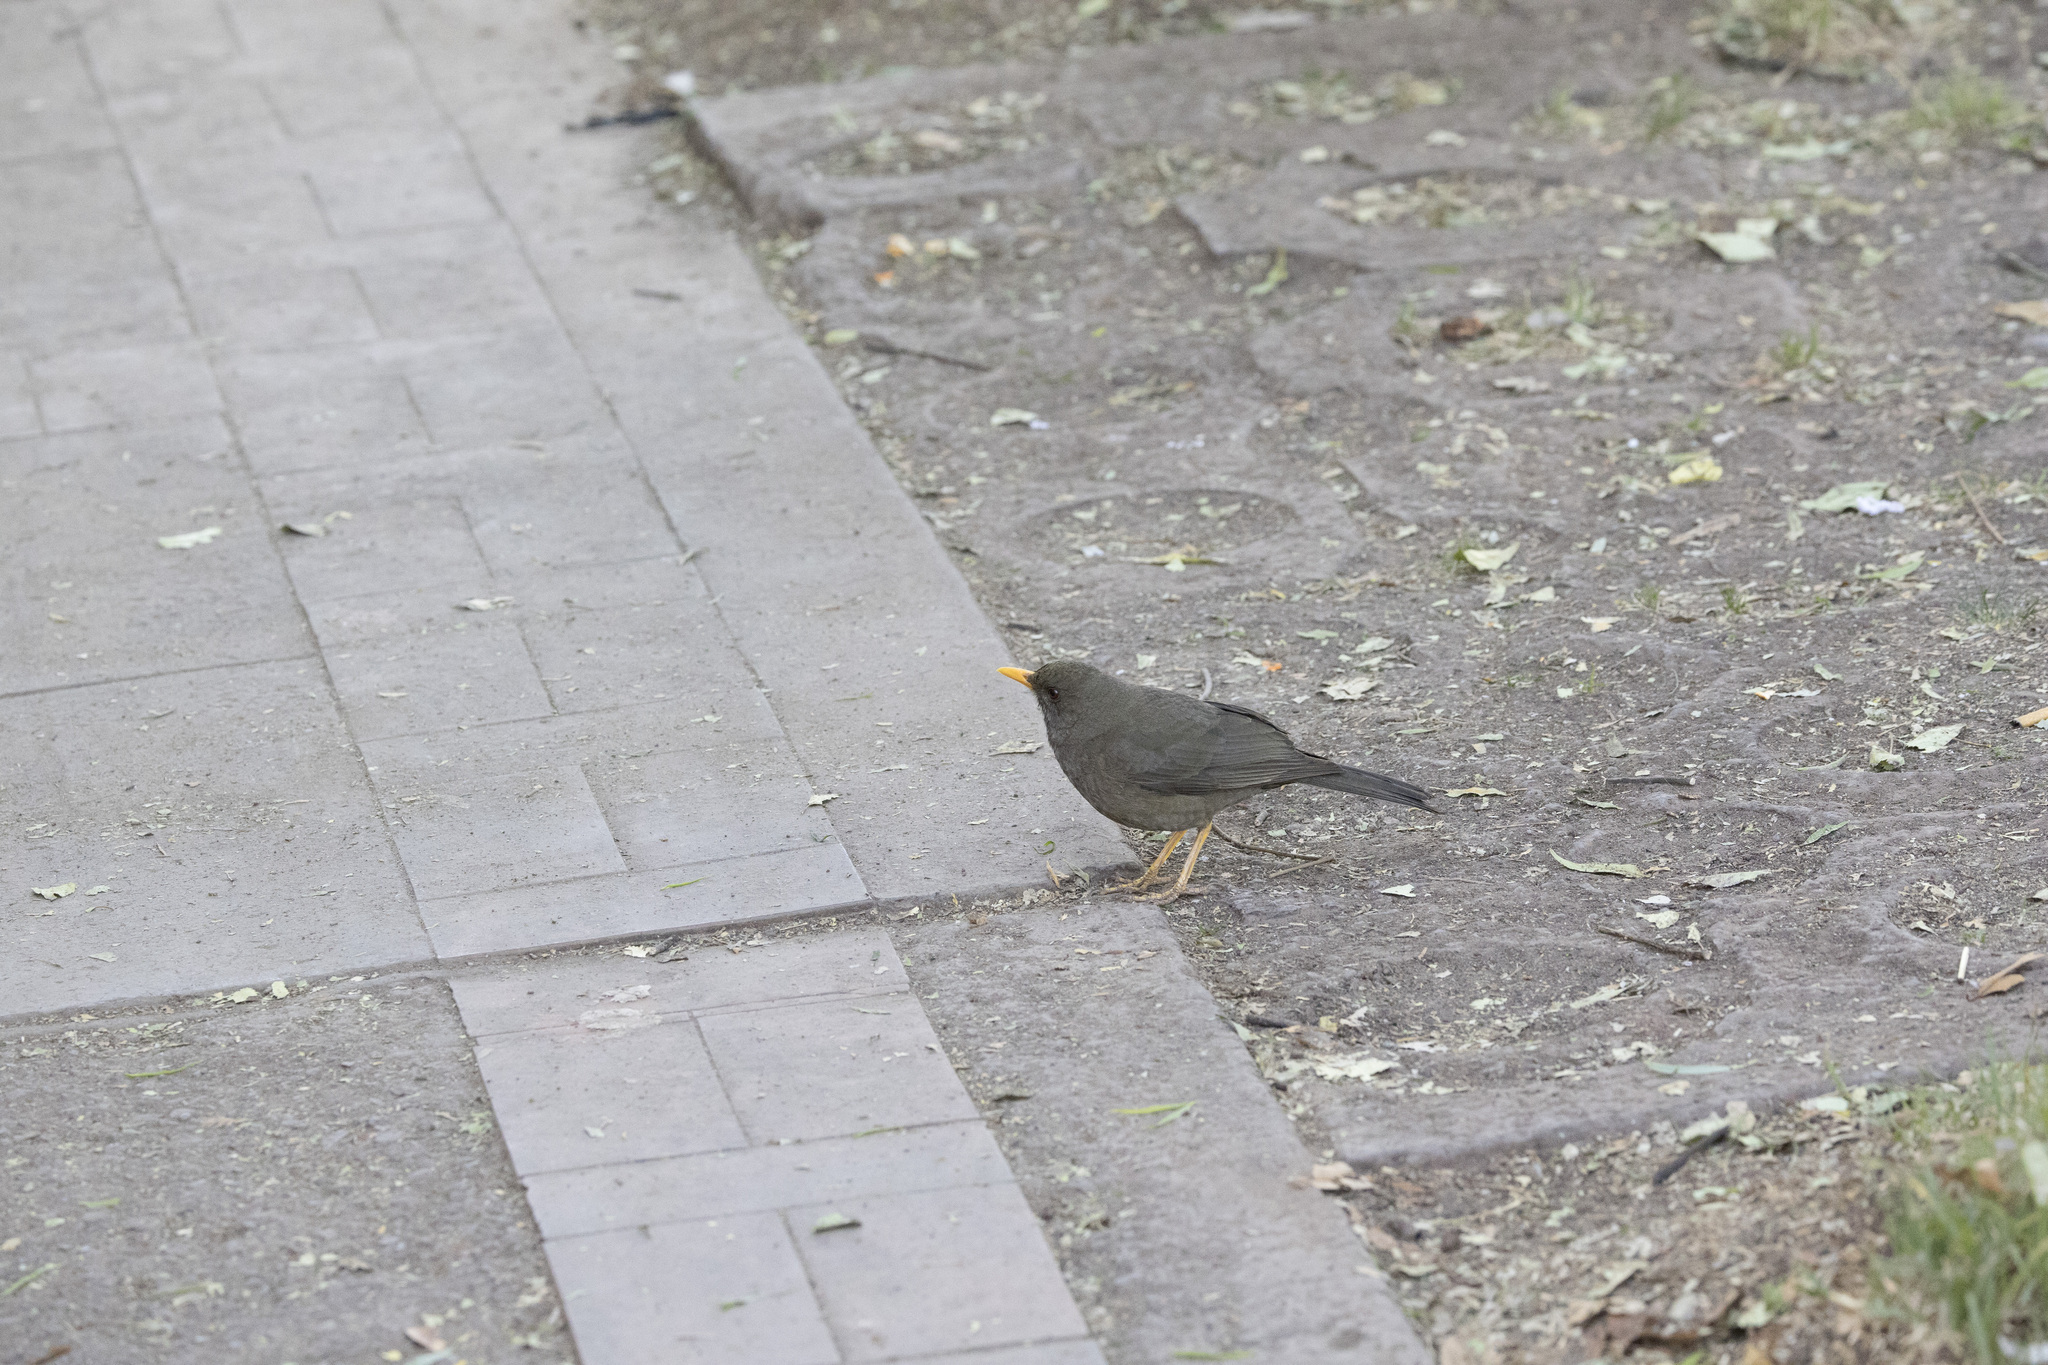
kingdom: Animalia
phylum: Chordata
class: Aves
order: Passeriformes
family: Turdidae
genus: Turdus
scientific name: Turdus chiguanco
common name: Chiguanco thrush
